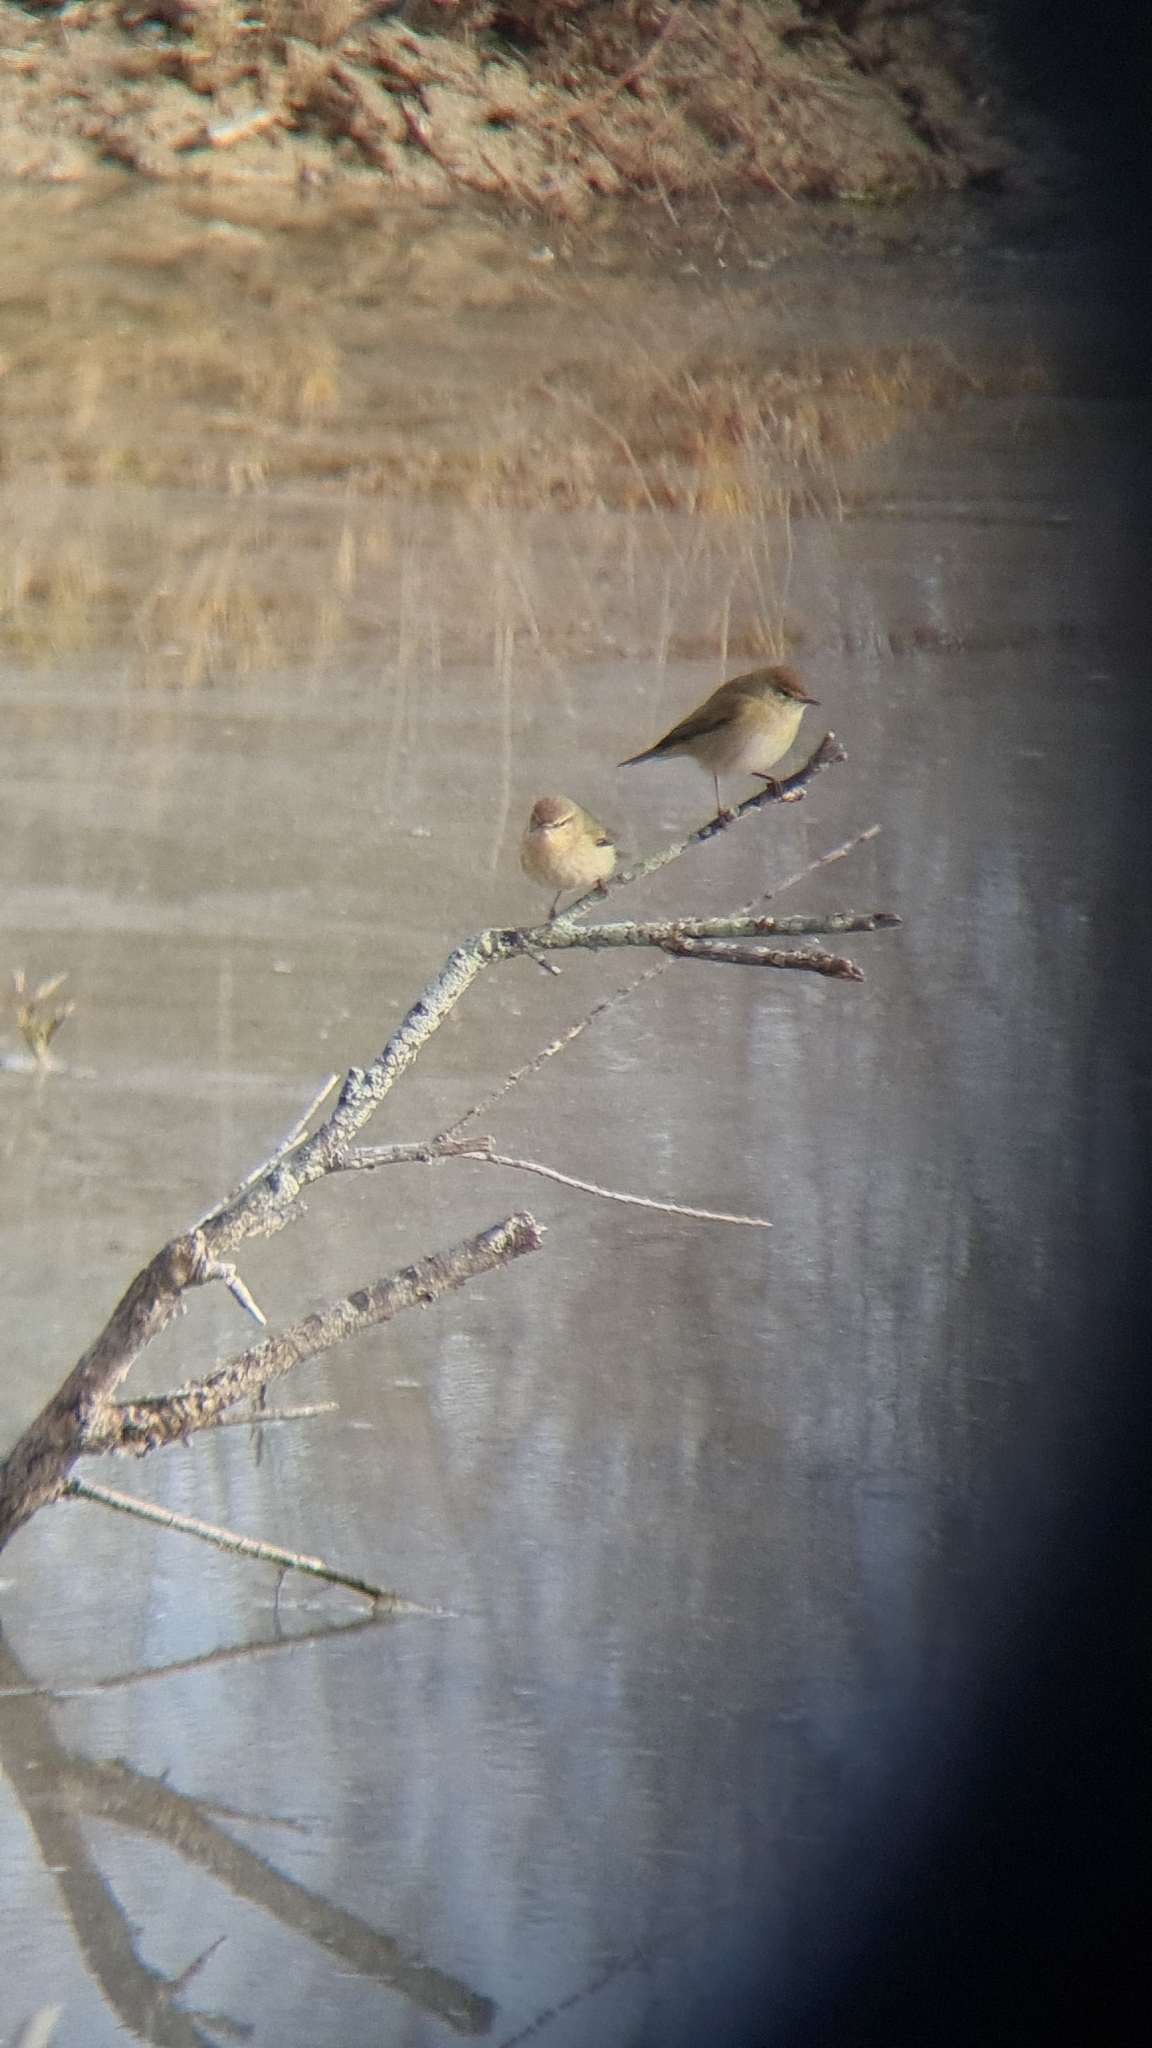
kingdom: Animalia
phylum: Chordata
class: Aves
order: Passeriformes
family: Phylloscopidae
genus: Phylloscopus
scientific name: Phylloscopus collybita
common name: Common chiffchaff
